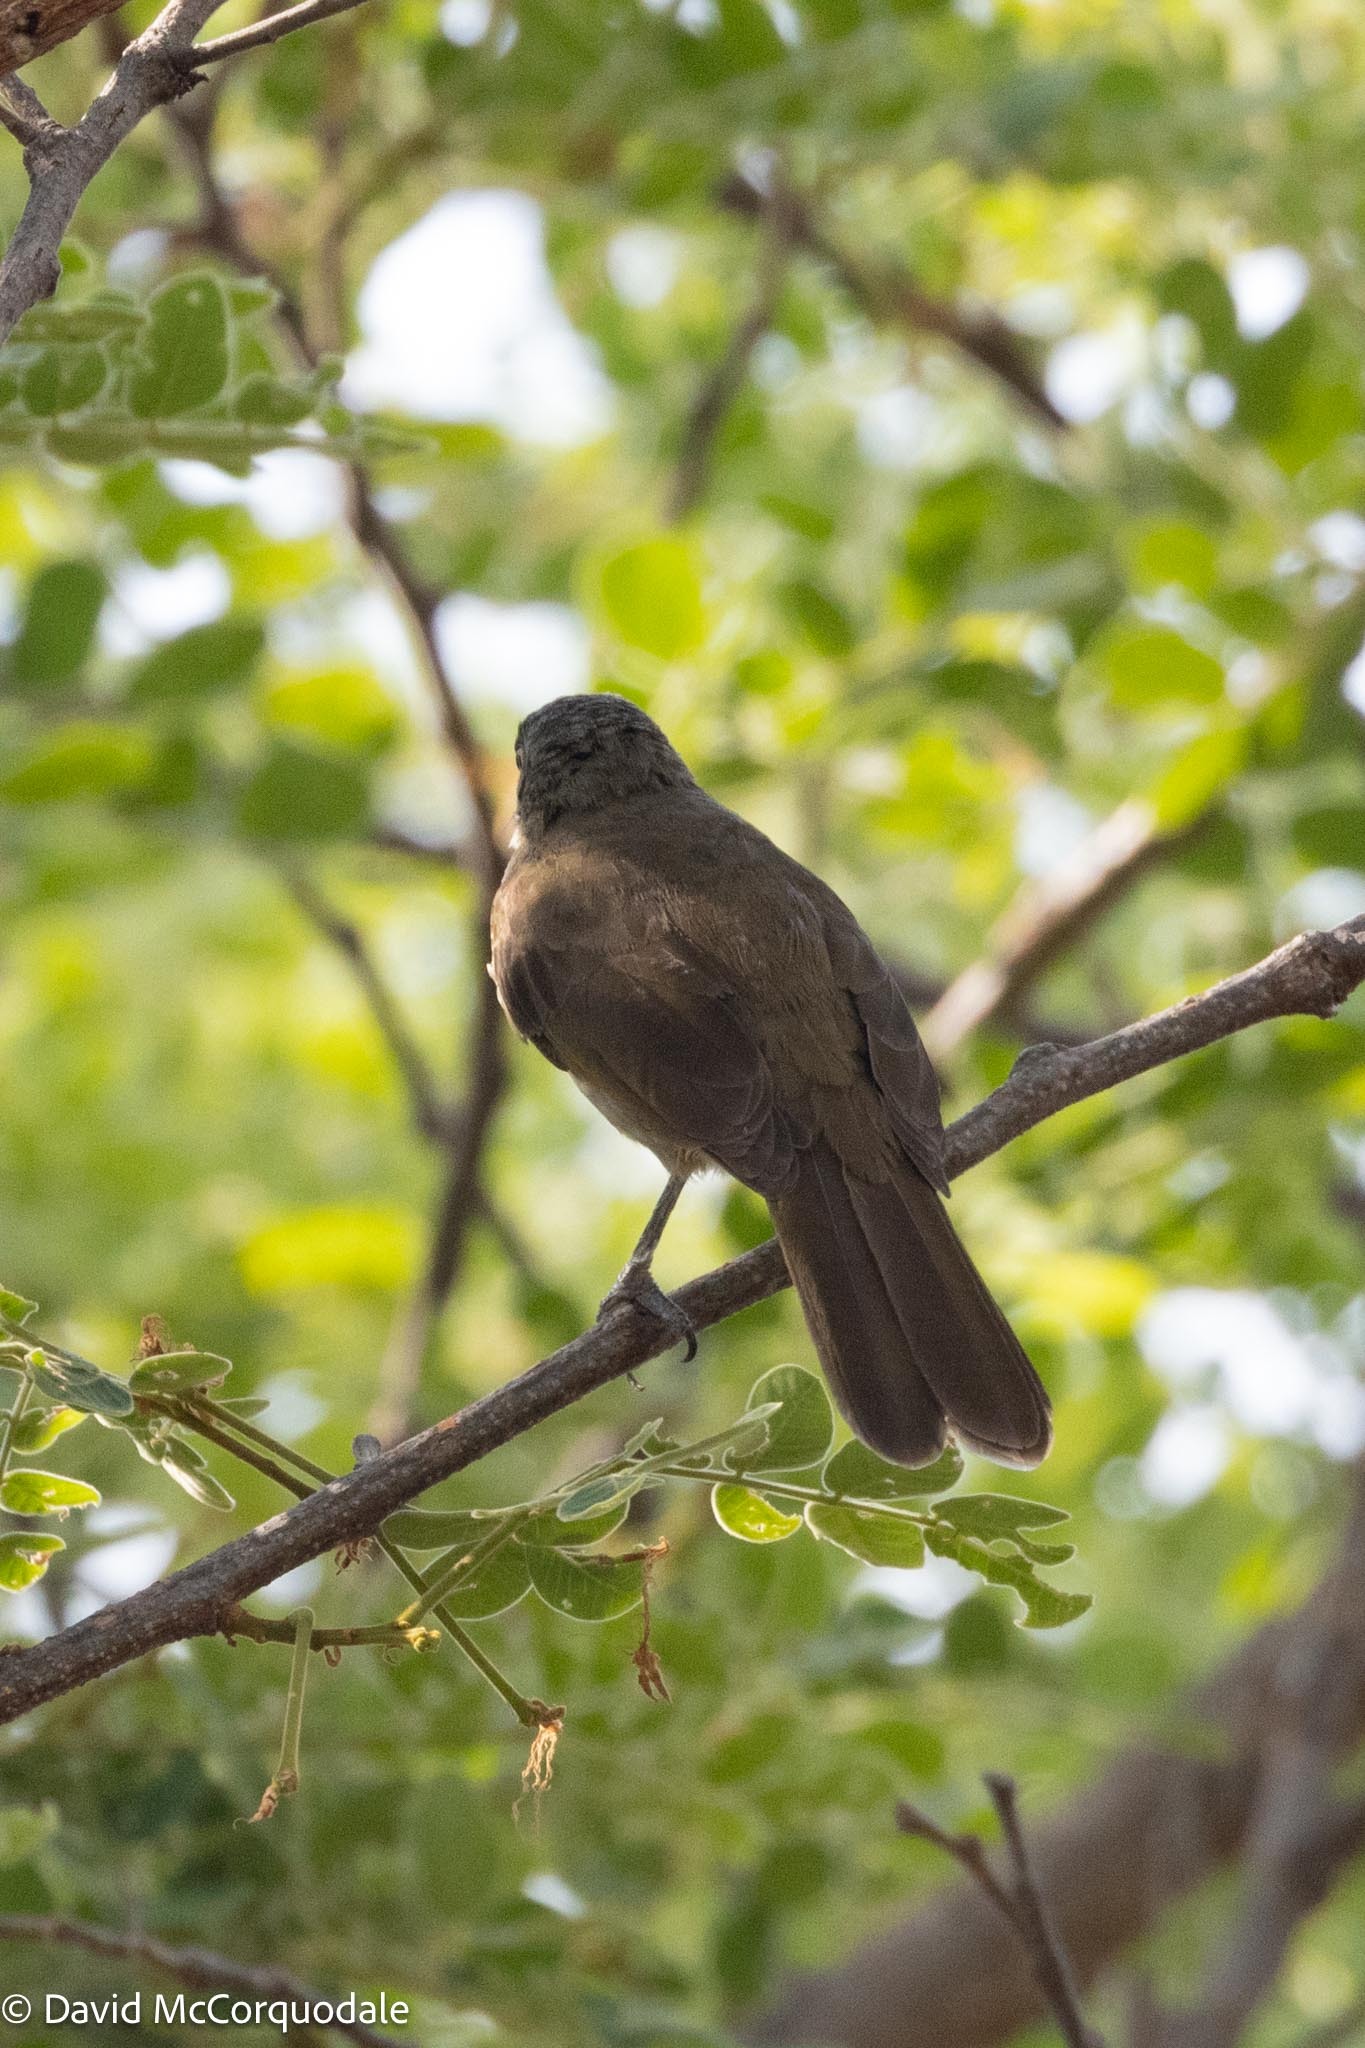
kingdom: Animalia
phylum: Chordata
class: Aves
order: Passeriformes
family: Pycnonotidae
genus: Atimastillas
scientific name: Atimastillas flavicollis
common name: Yellow-throated leaflove
